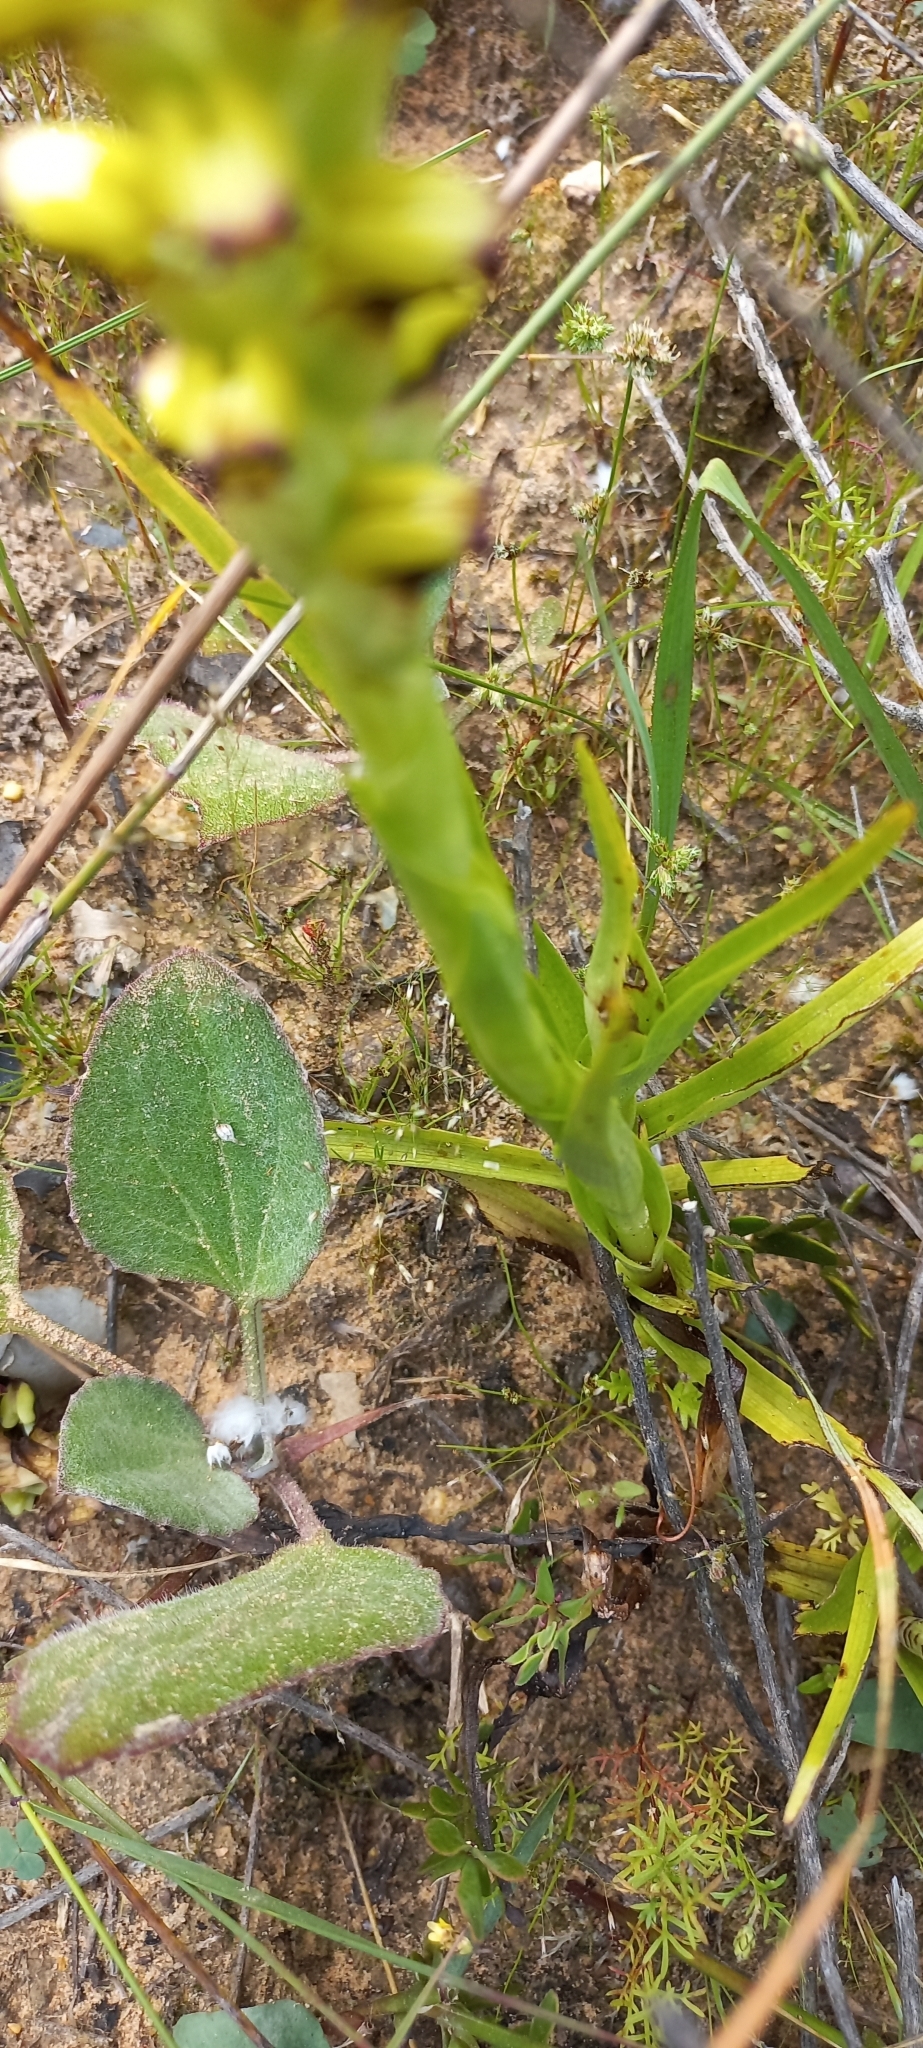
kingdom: Plantae
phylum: Tracheophyta
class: Liliopsida
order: Asparagales
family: Orchidaceae
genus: Corycium
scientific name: Corycium orobanchoides
